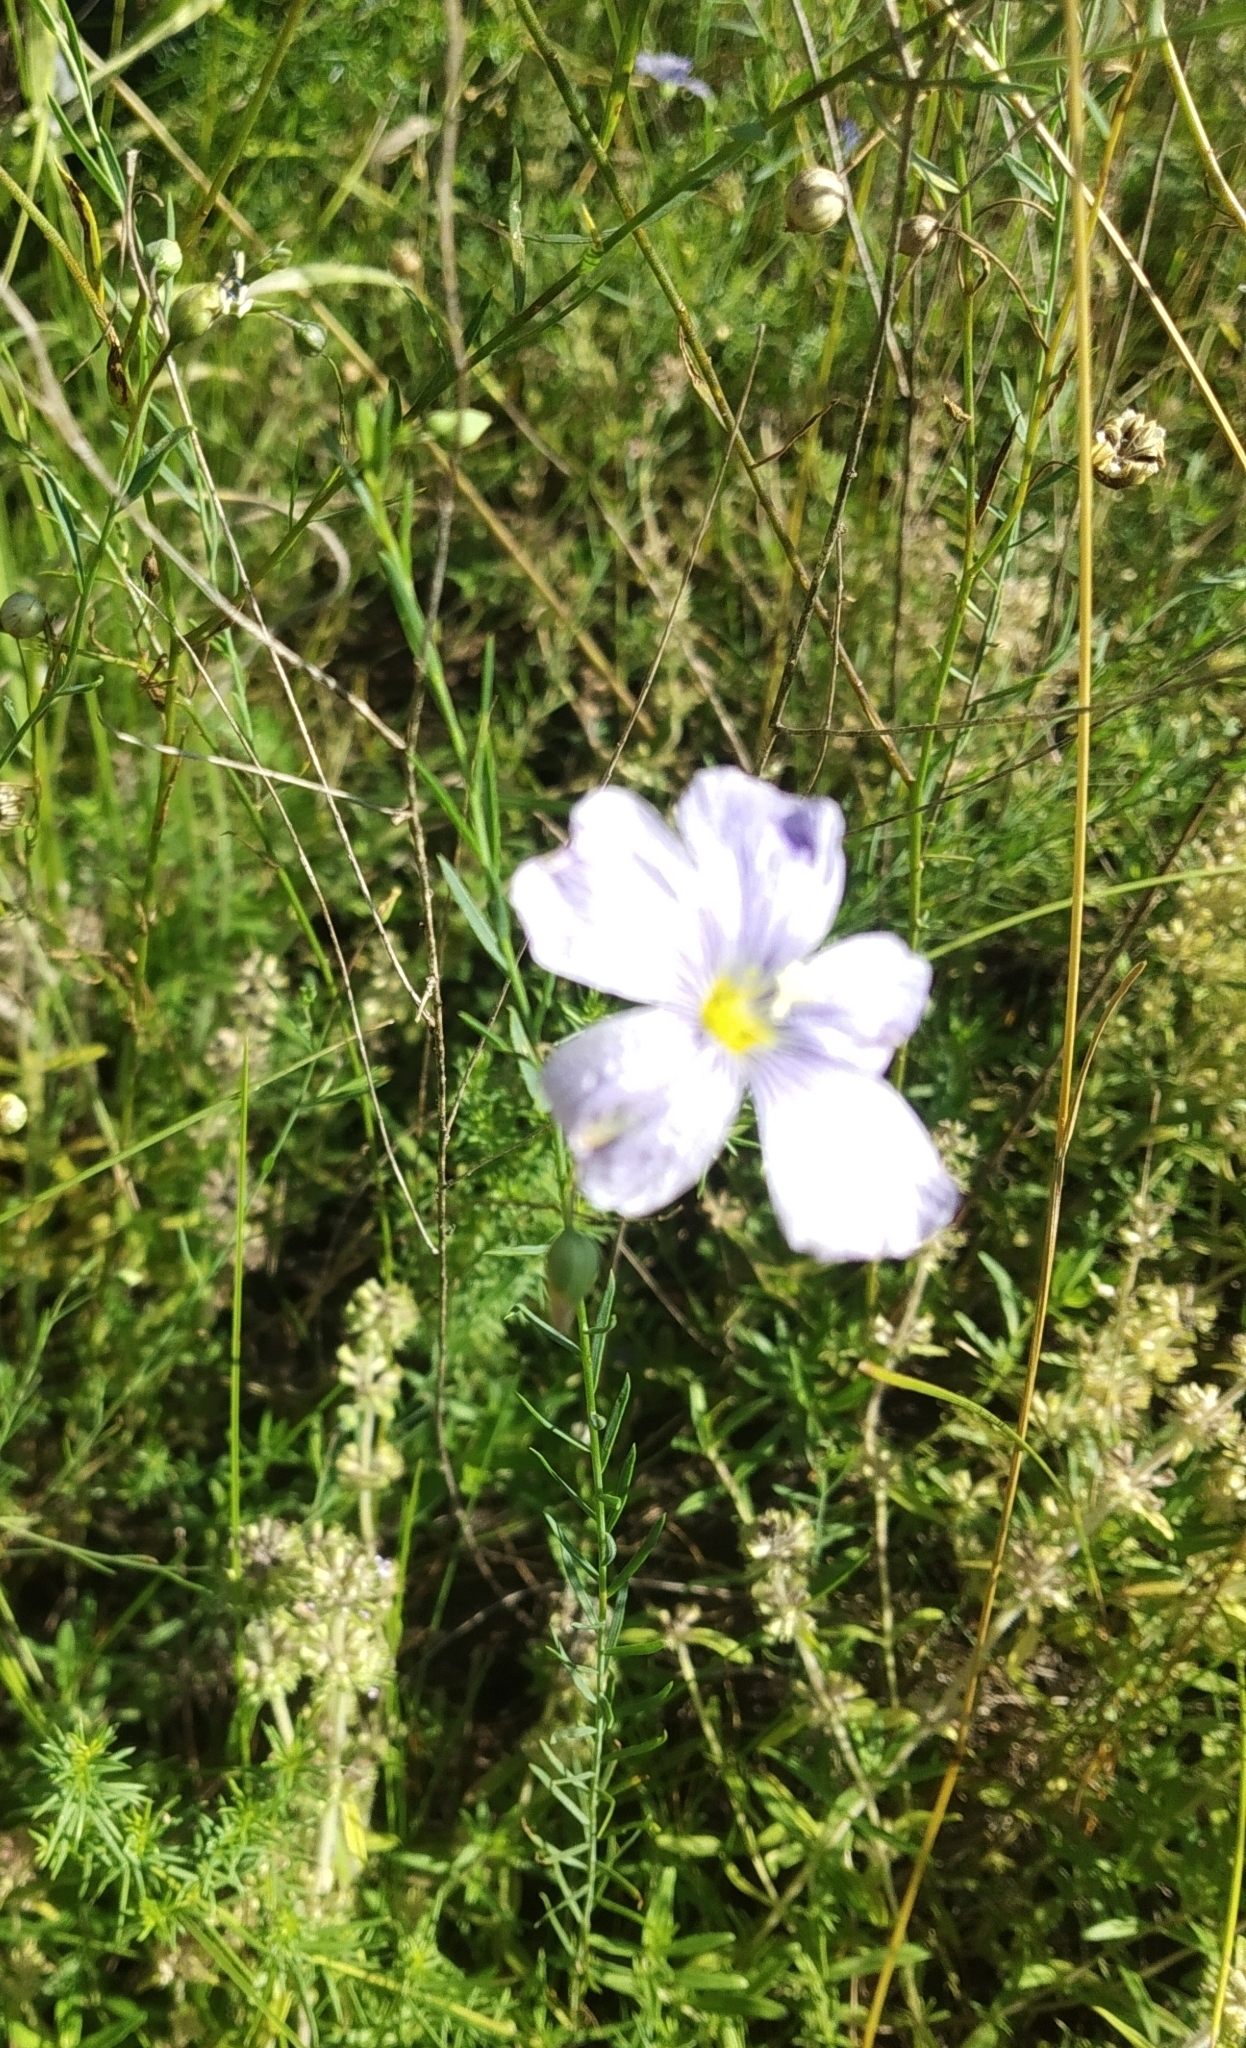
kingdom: Plantae
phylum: Tracheophyta
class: Magnoliopsida
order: Malpighiales
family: Linaceae
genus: Linum
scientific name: Linum perenne
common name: Blue flax
